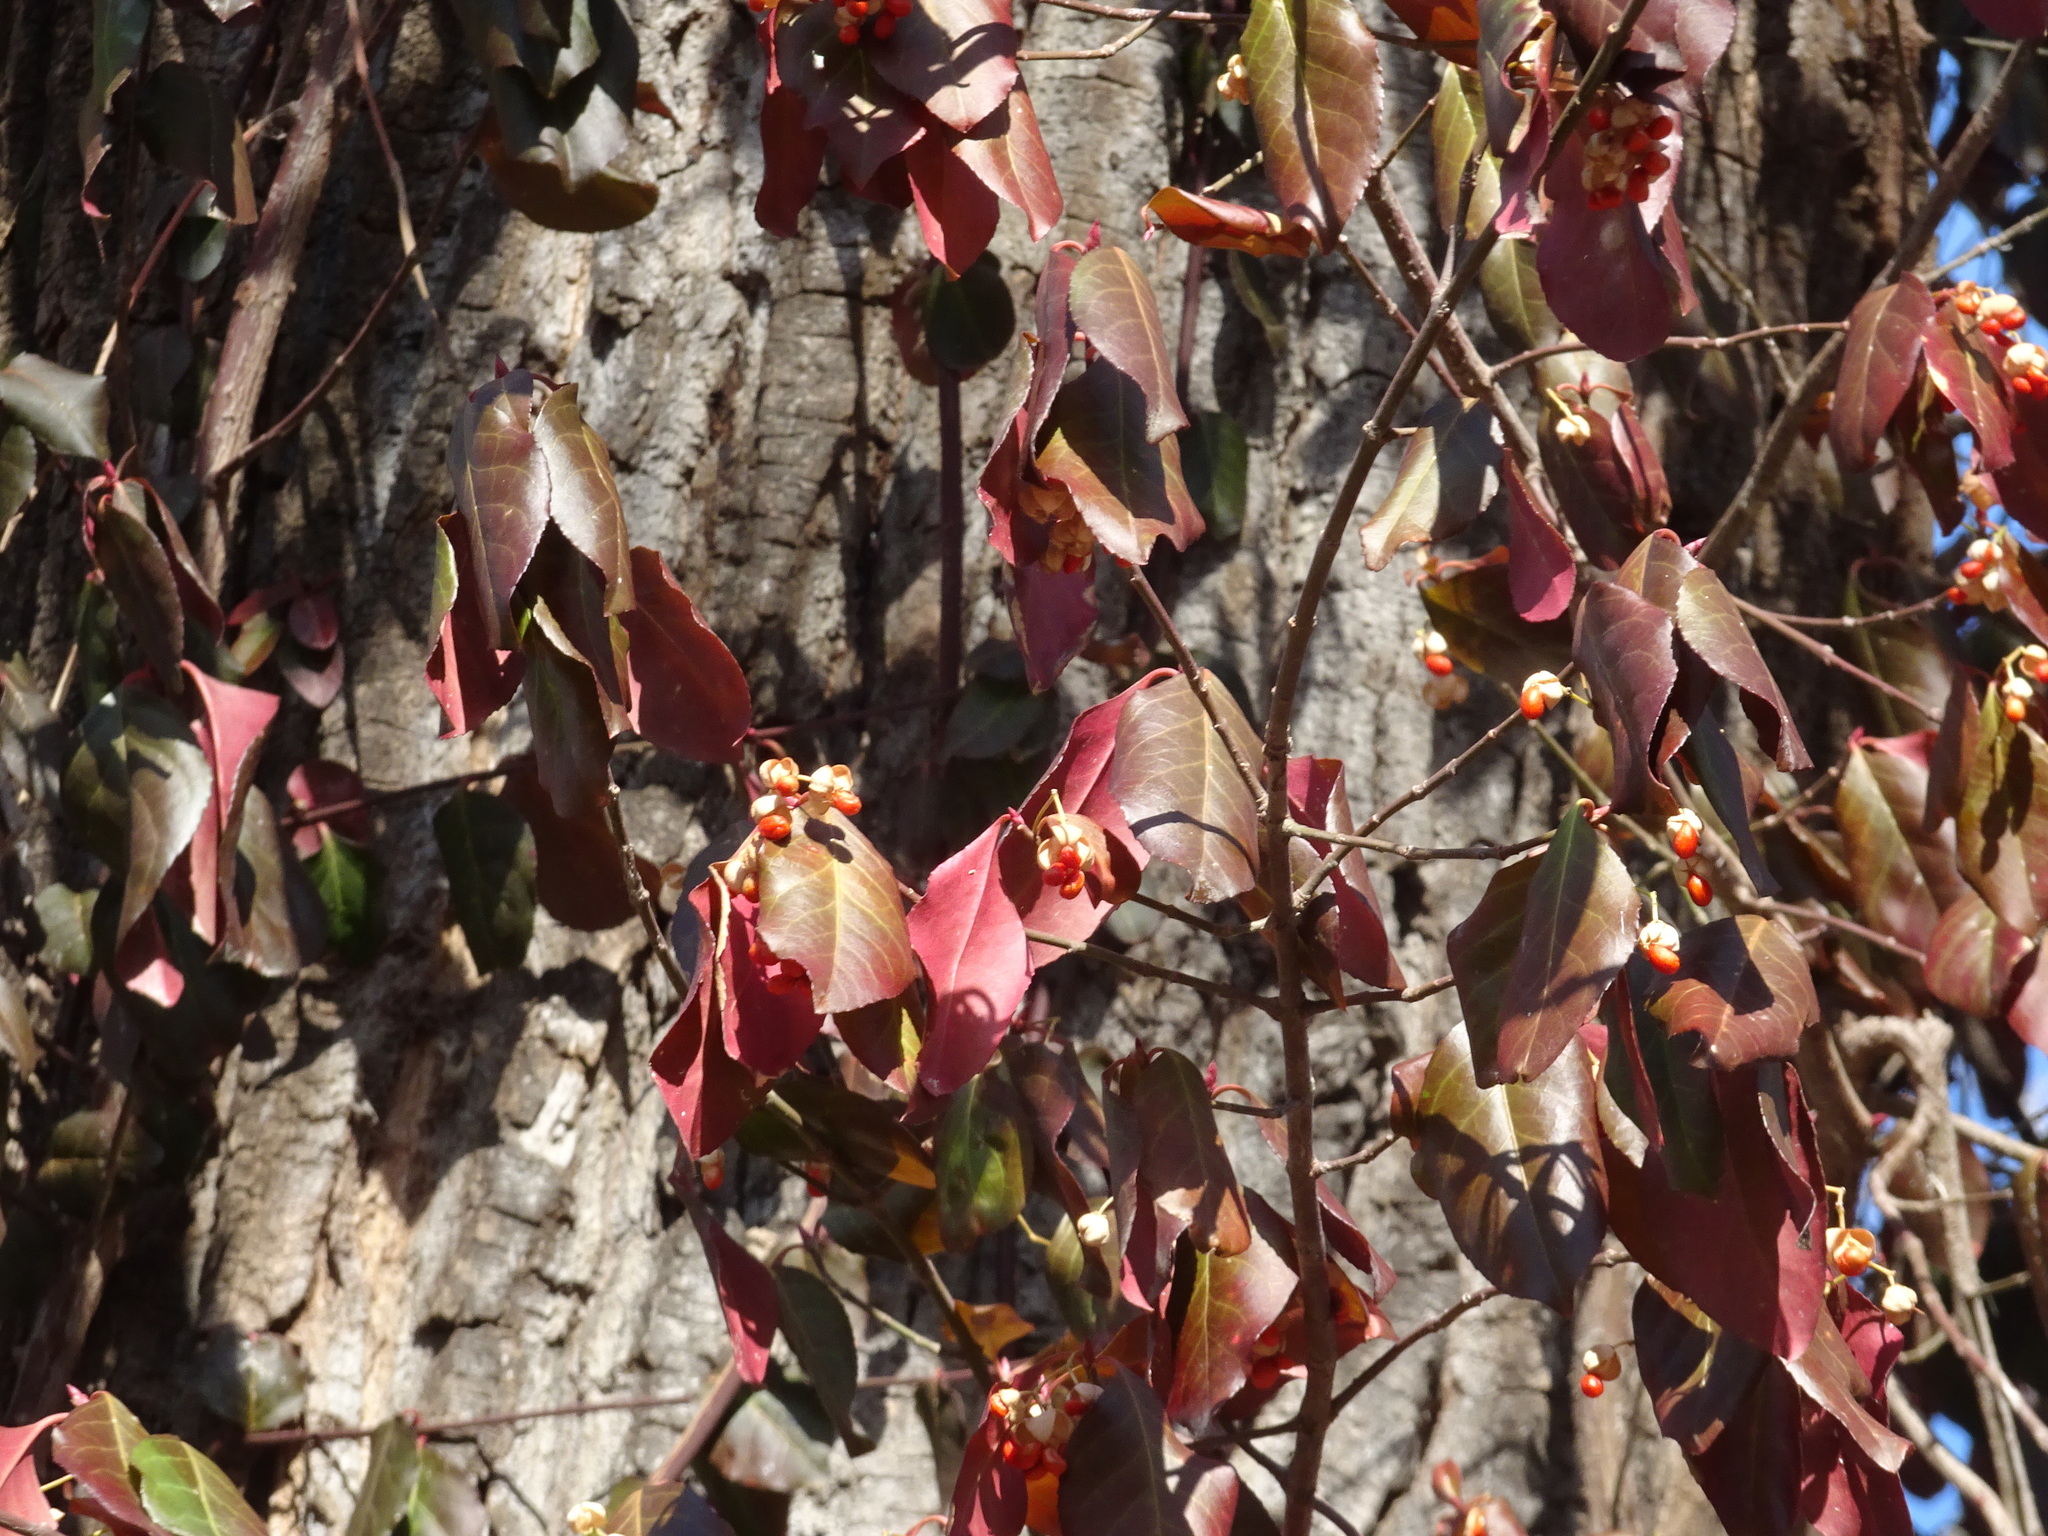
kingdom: Plantae
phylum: Tracheophyta
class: Magnoliopsida
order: Celastrales
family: Celastraceae
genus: Euonymus
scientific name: Euonymus fortunei
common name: Climbing euonymus
